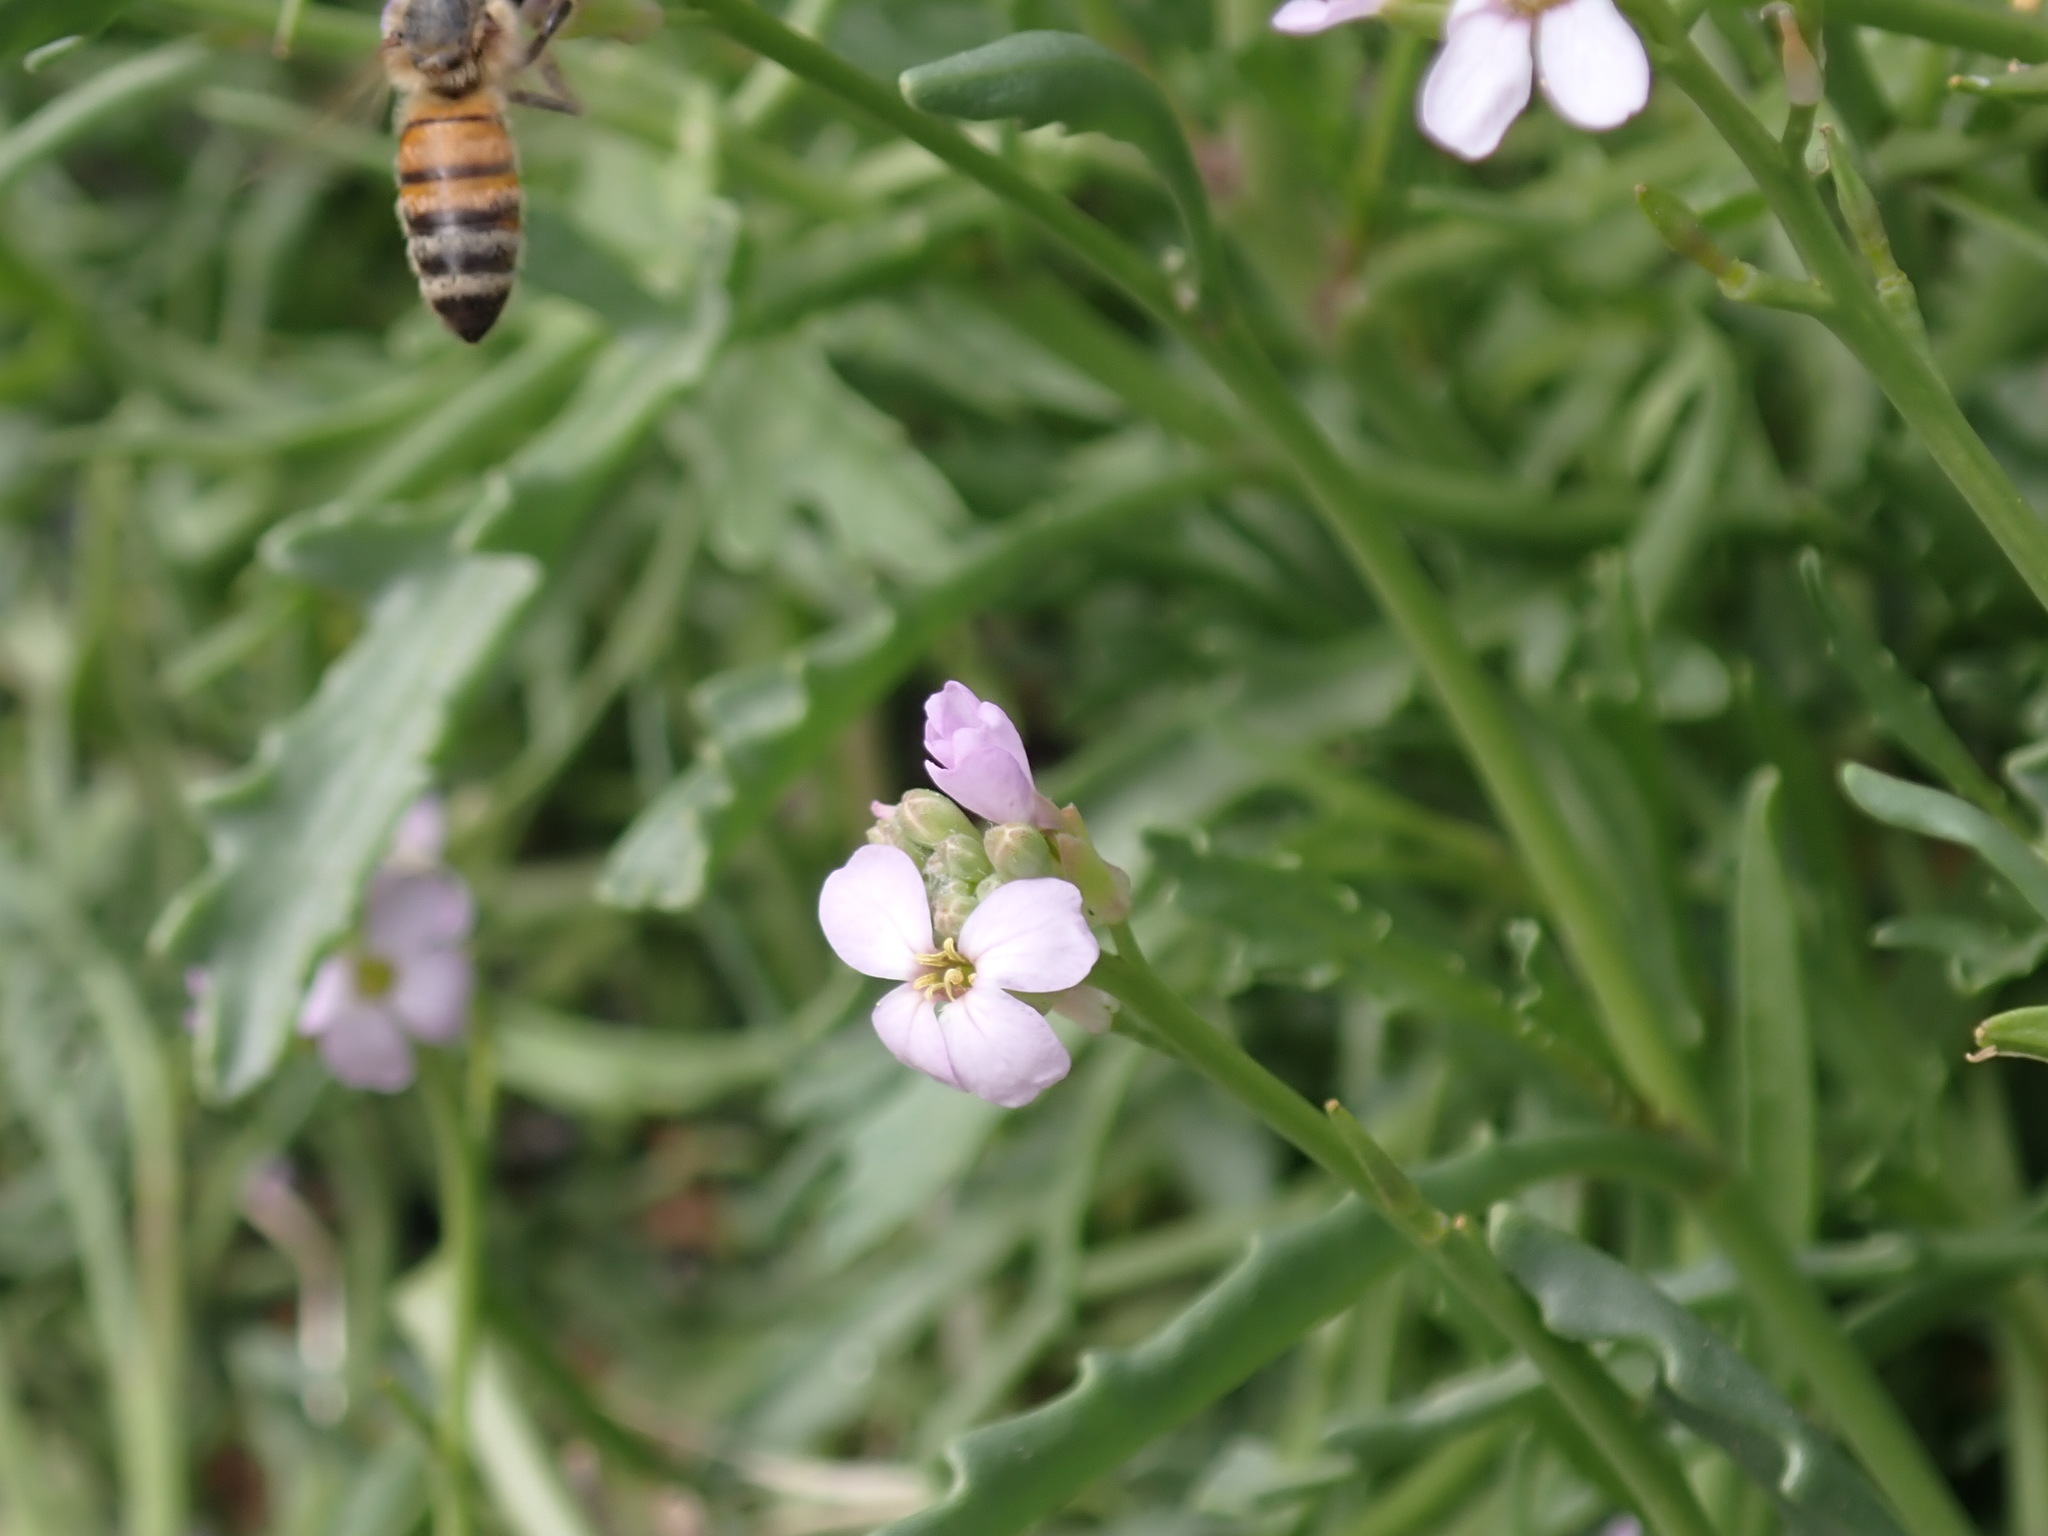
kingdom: Animalia
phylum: Arthropoda
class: Insecta
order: Hymenoptera
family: Apidae
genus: Apis
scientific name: Apis mellifera
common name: Honey bee
